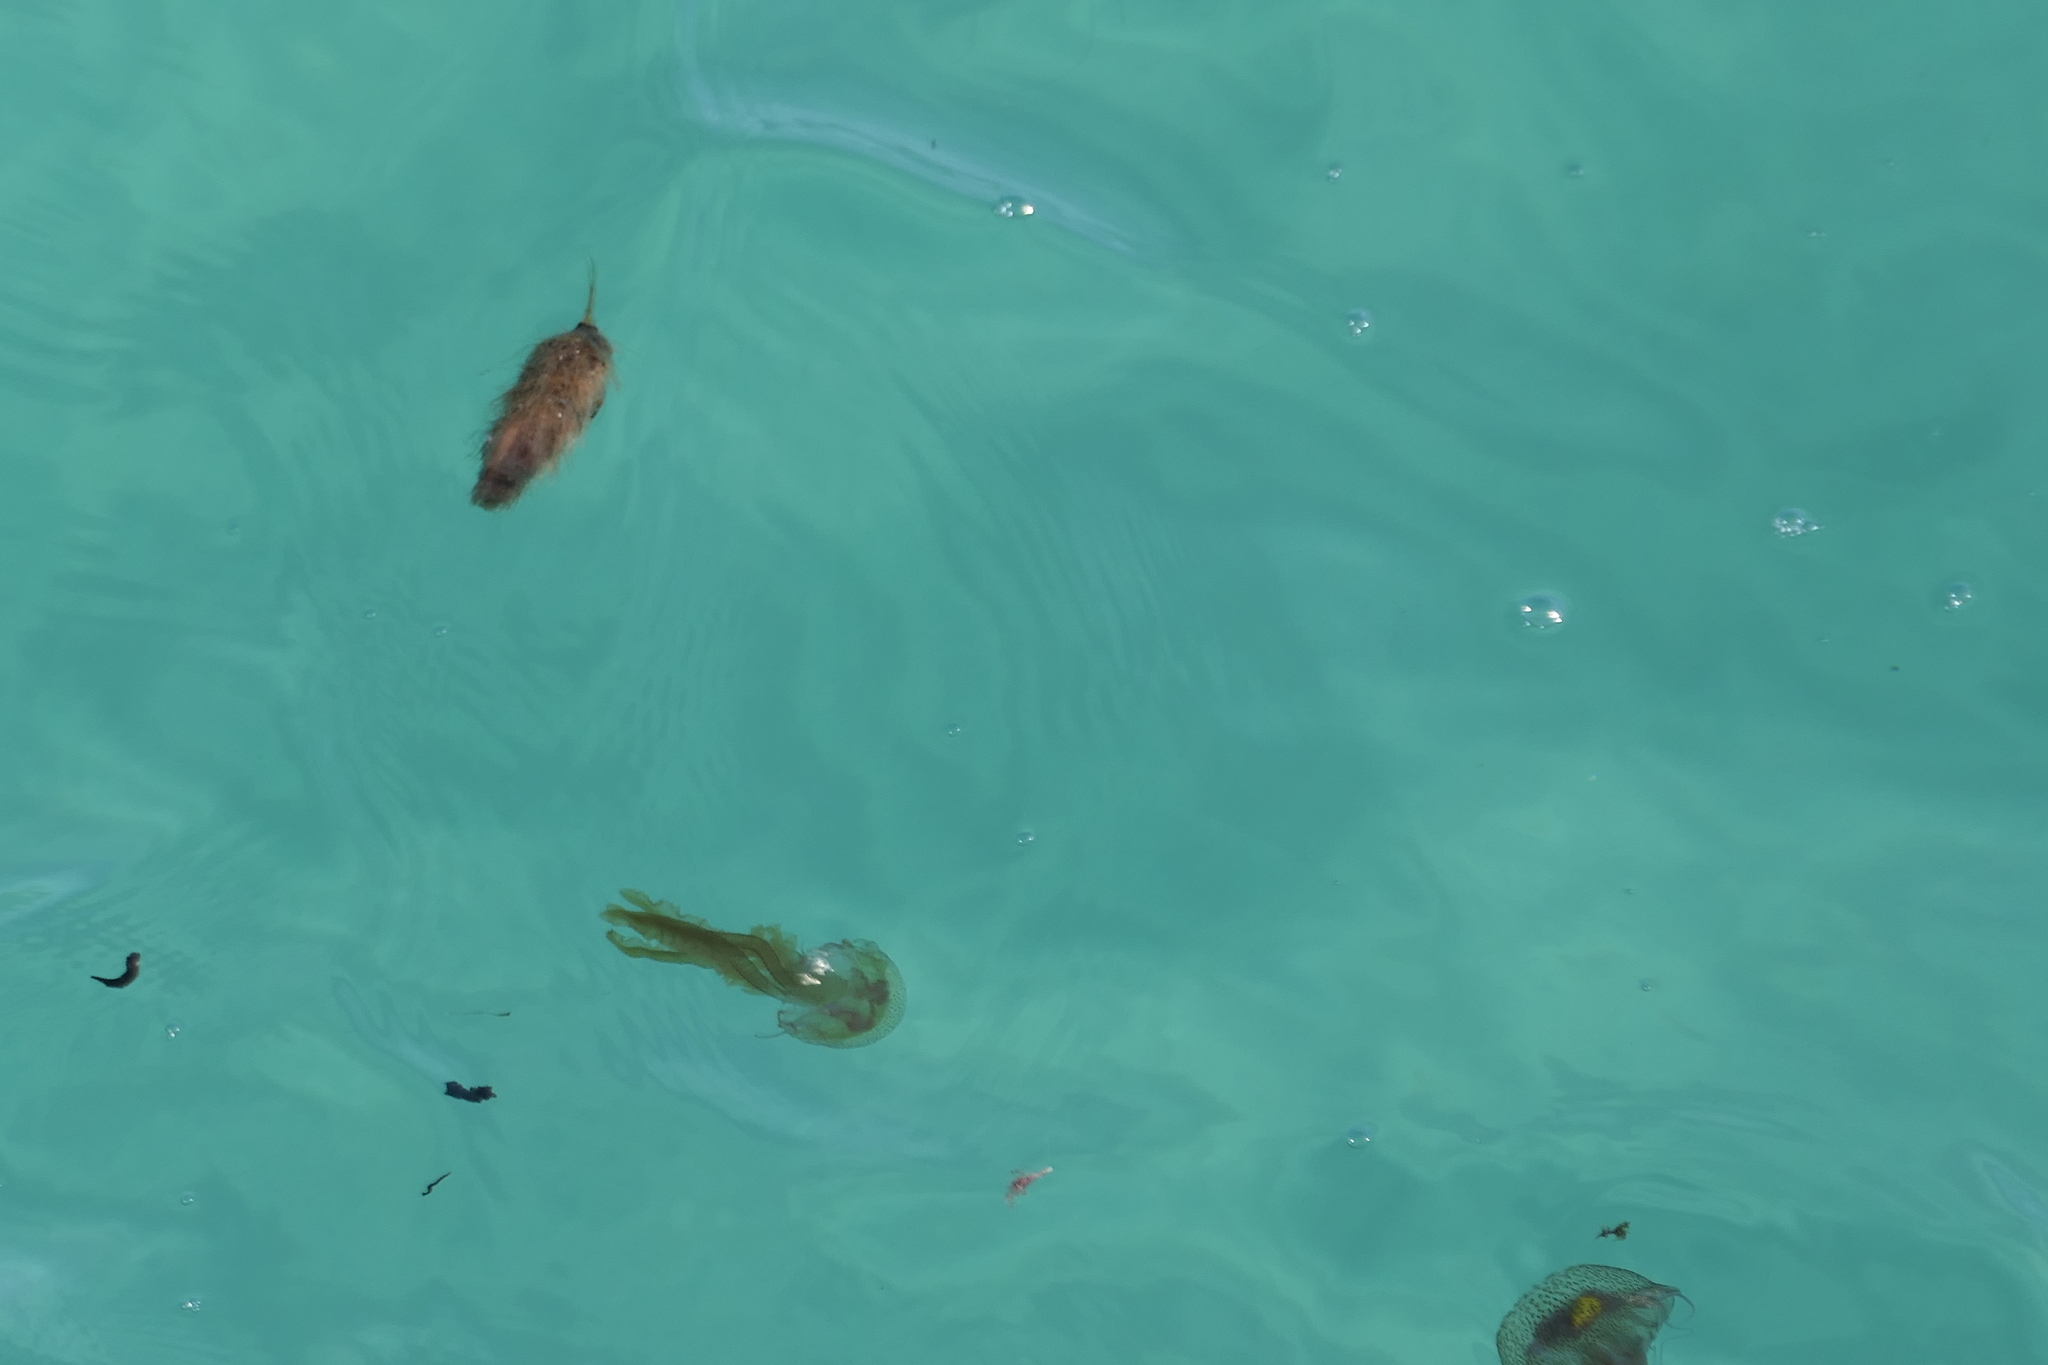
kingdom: Animalia
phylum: Cnidaria
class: Scyphozoa
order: Semaeostomeae
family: Pelagiidae
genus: Pelagia
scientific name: Pelagia noctiluca
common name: Mauve stinger
